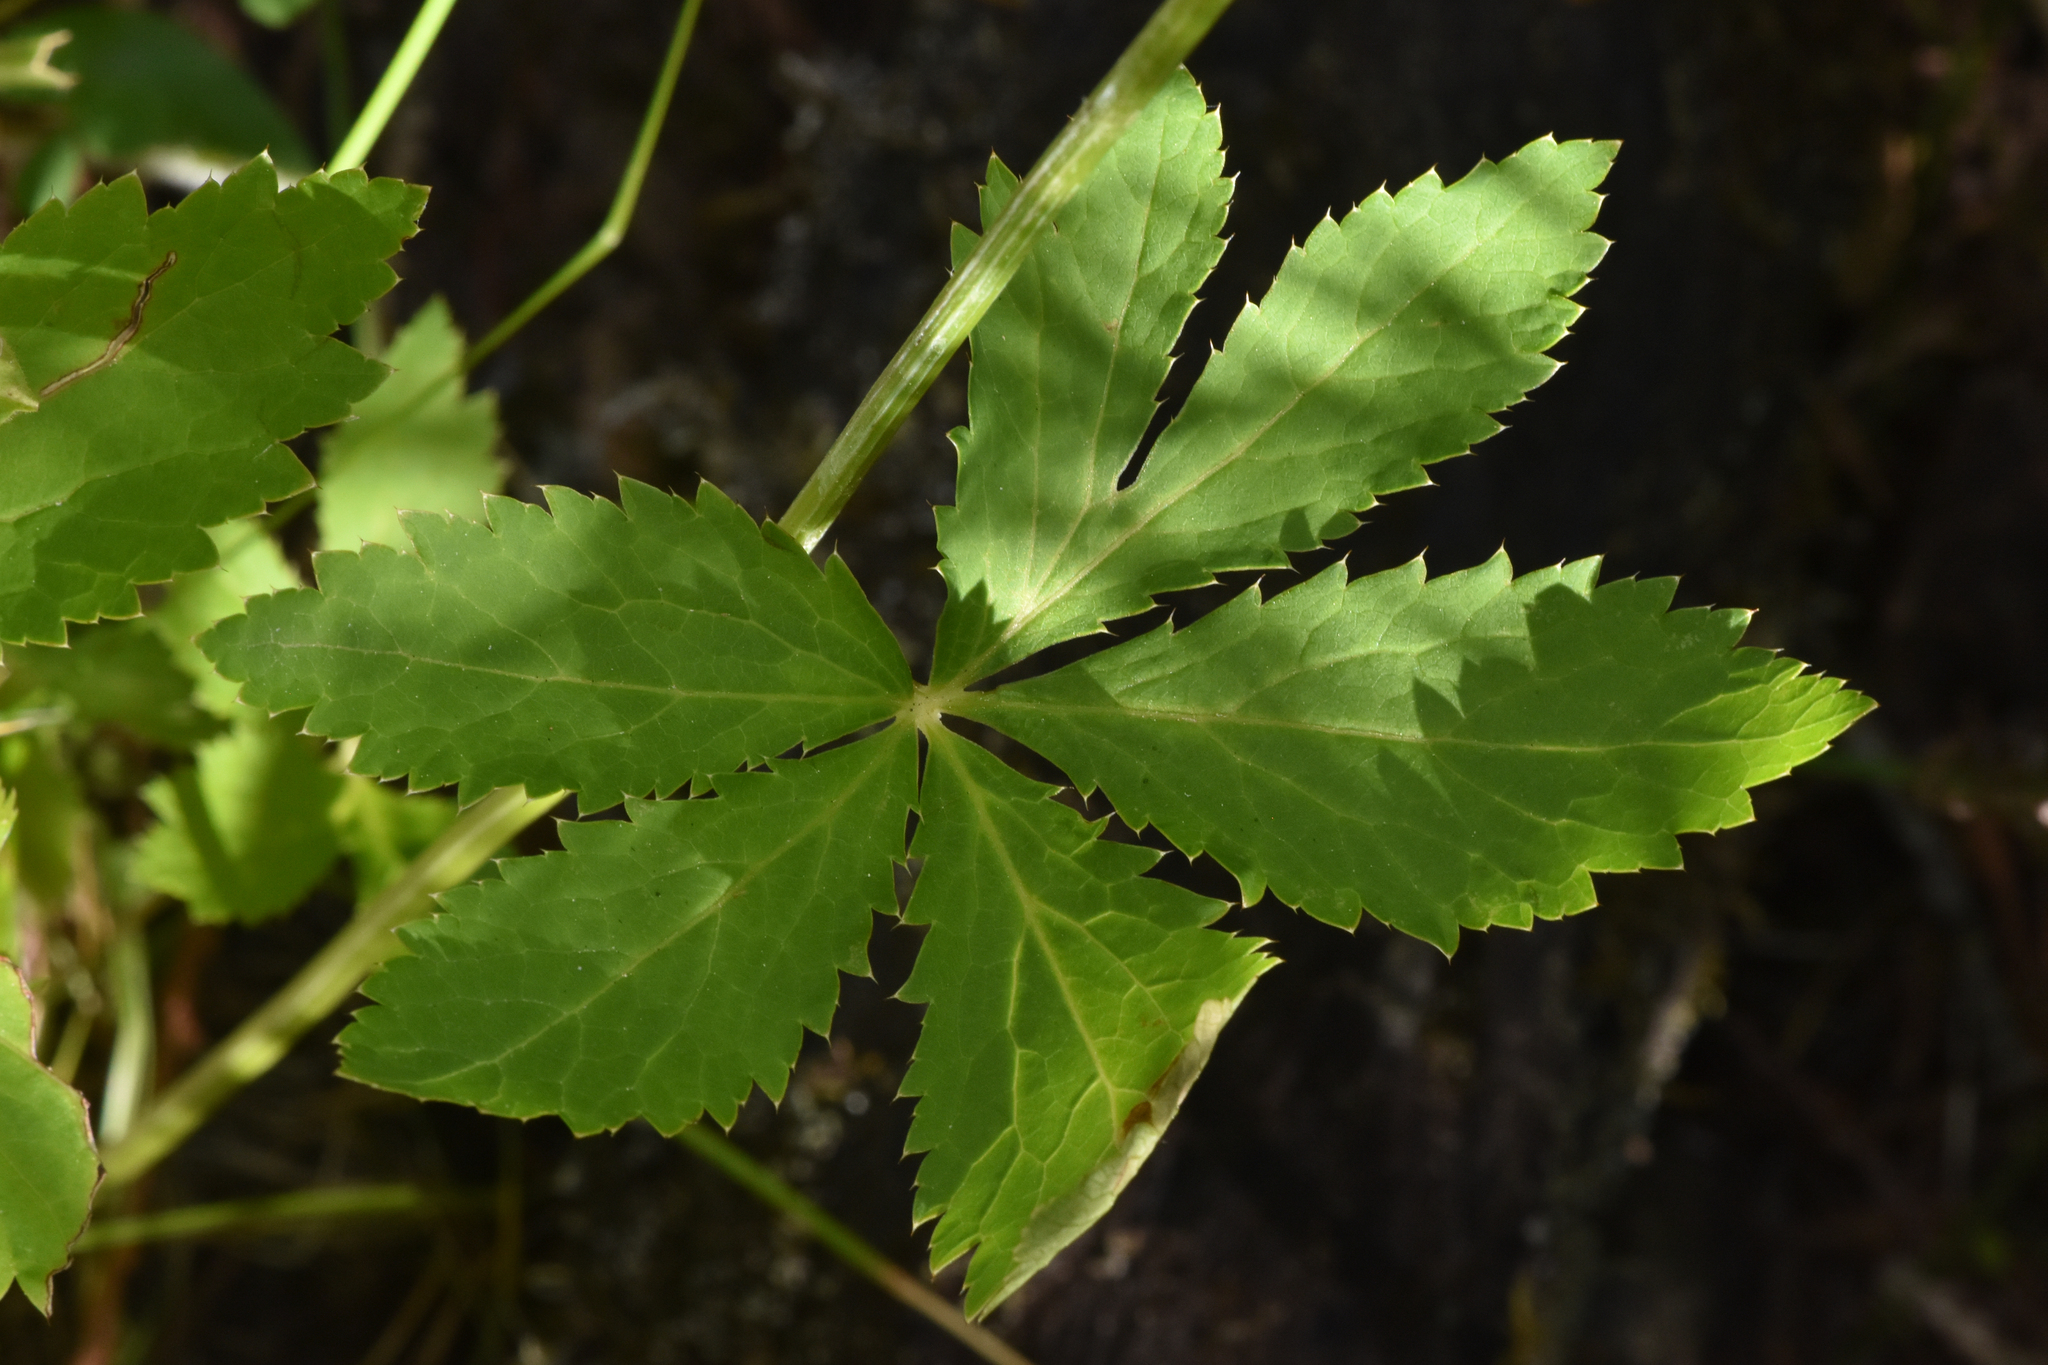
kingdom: Plantae
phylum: Tracheophyta
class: Magnoliopsida
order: Apiales
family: Apiaceae
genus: Sanicula
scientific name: Sanicula marilandica
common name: Black snakeroot
